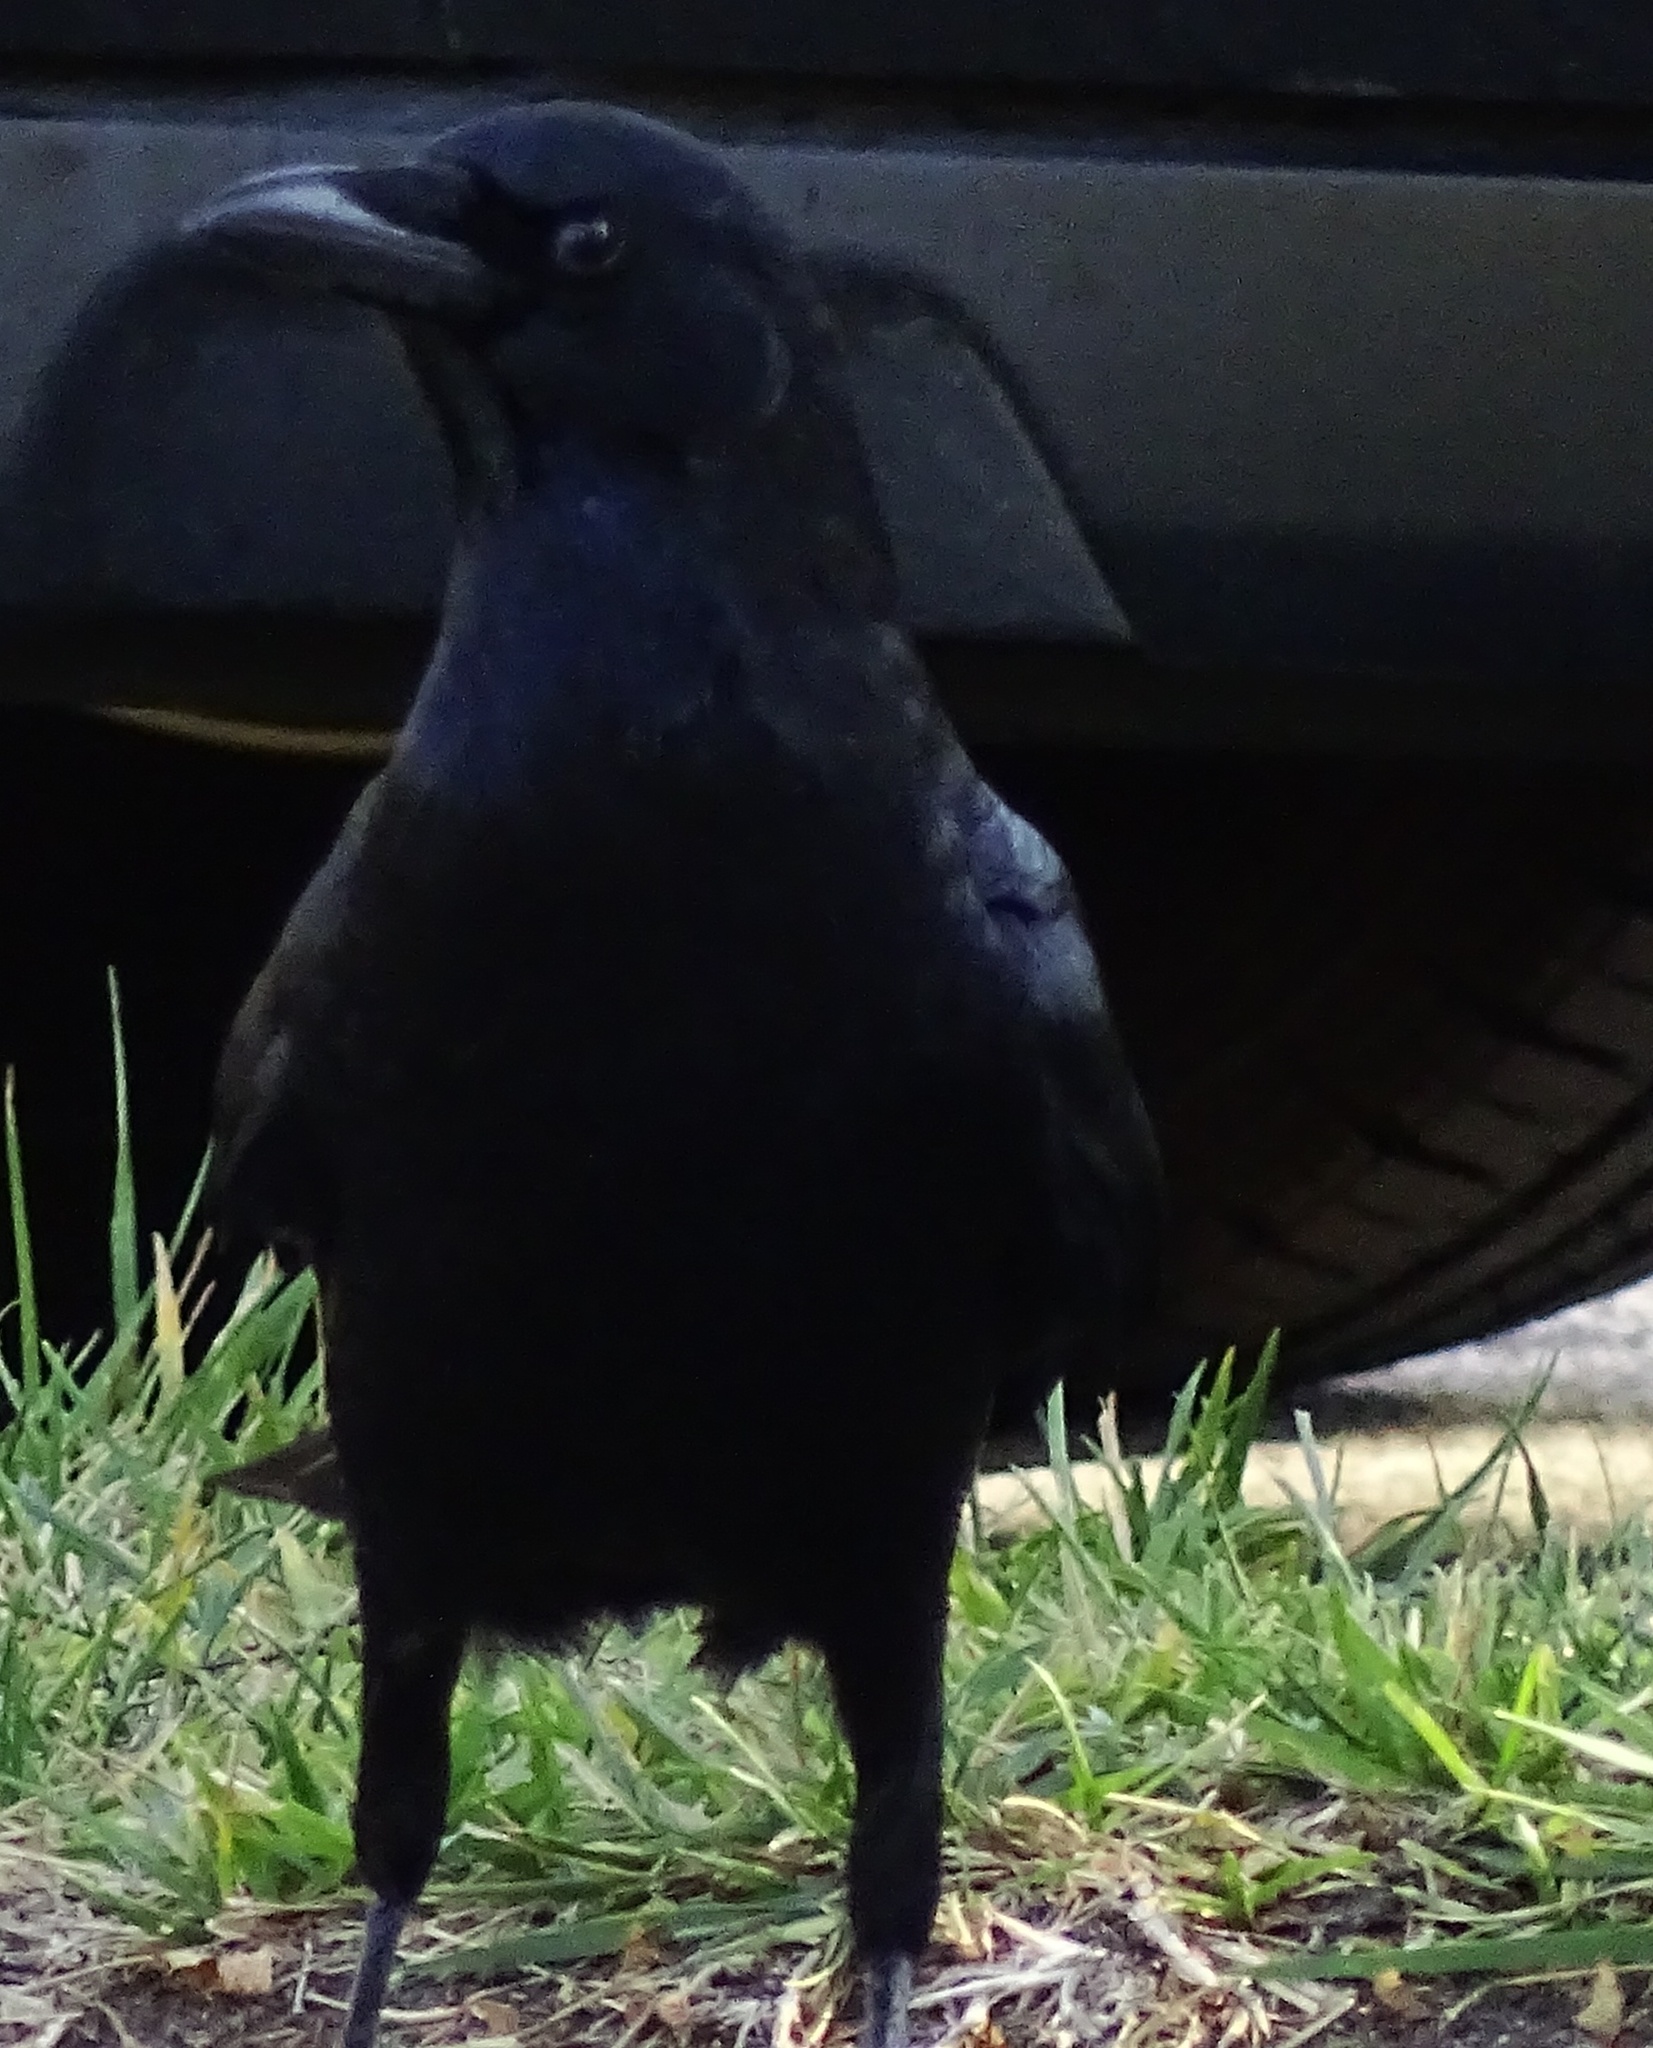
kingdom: Animalia
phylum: Chordata
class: Aves
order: Passeriformes
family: Corvidae
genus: Corvus
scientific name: Corvus brachyrhynchos
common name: American crow
